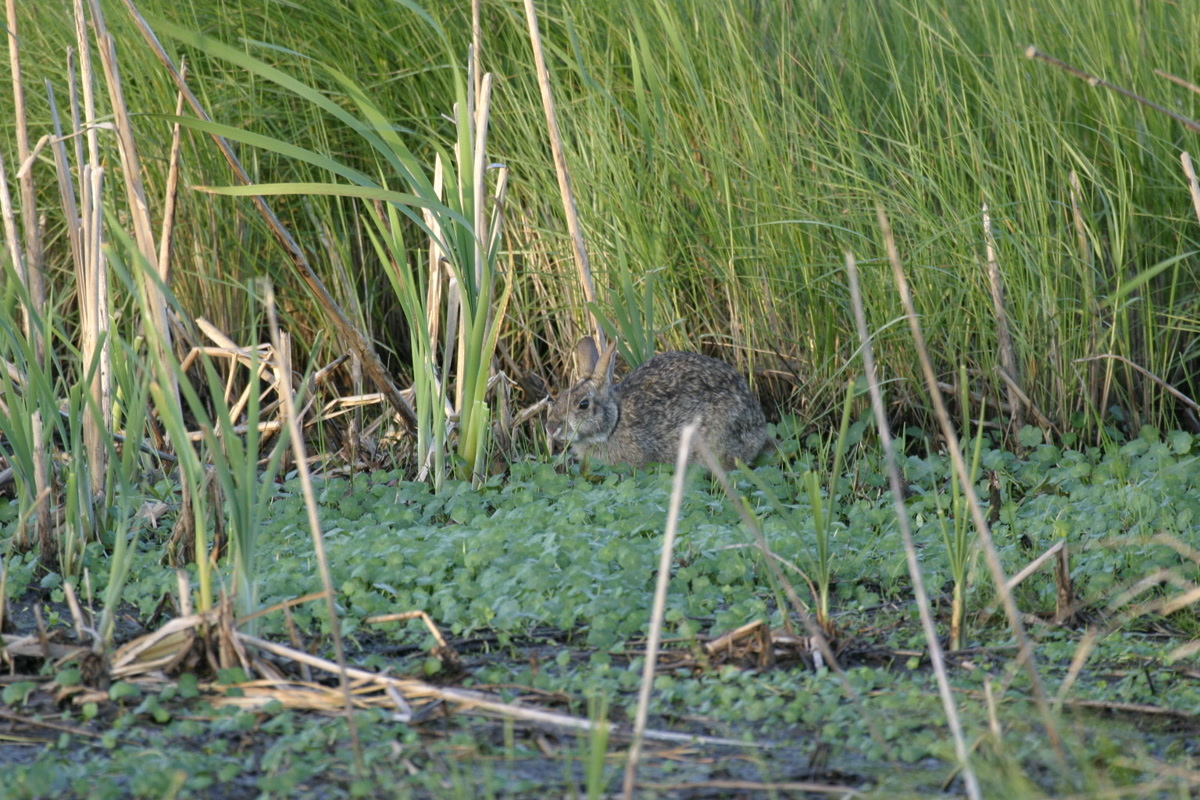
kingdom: Animalia
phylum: Chordata
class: Mammalia
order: Lagomorpha
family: Leporidae
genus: Sylvilagus
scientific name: Sylvilagus aquaticus
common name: Swamp rabbit
